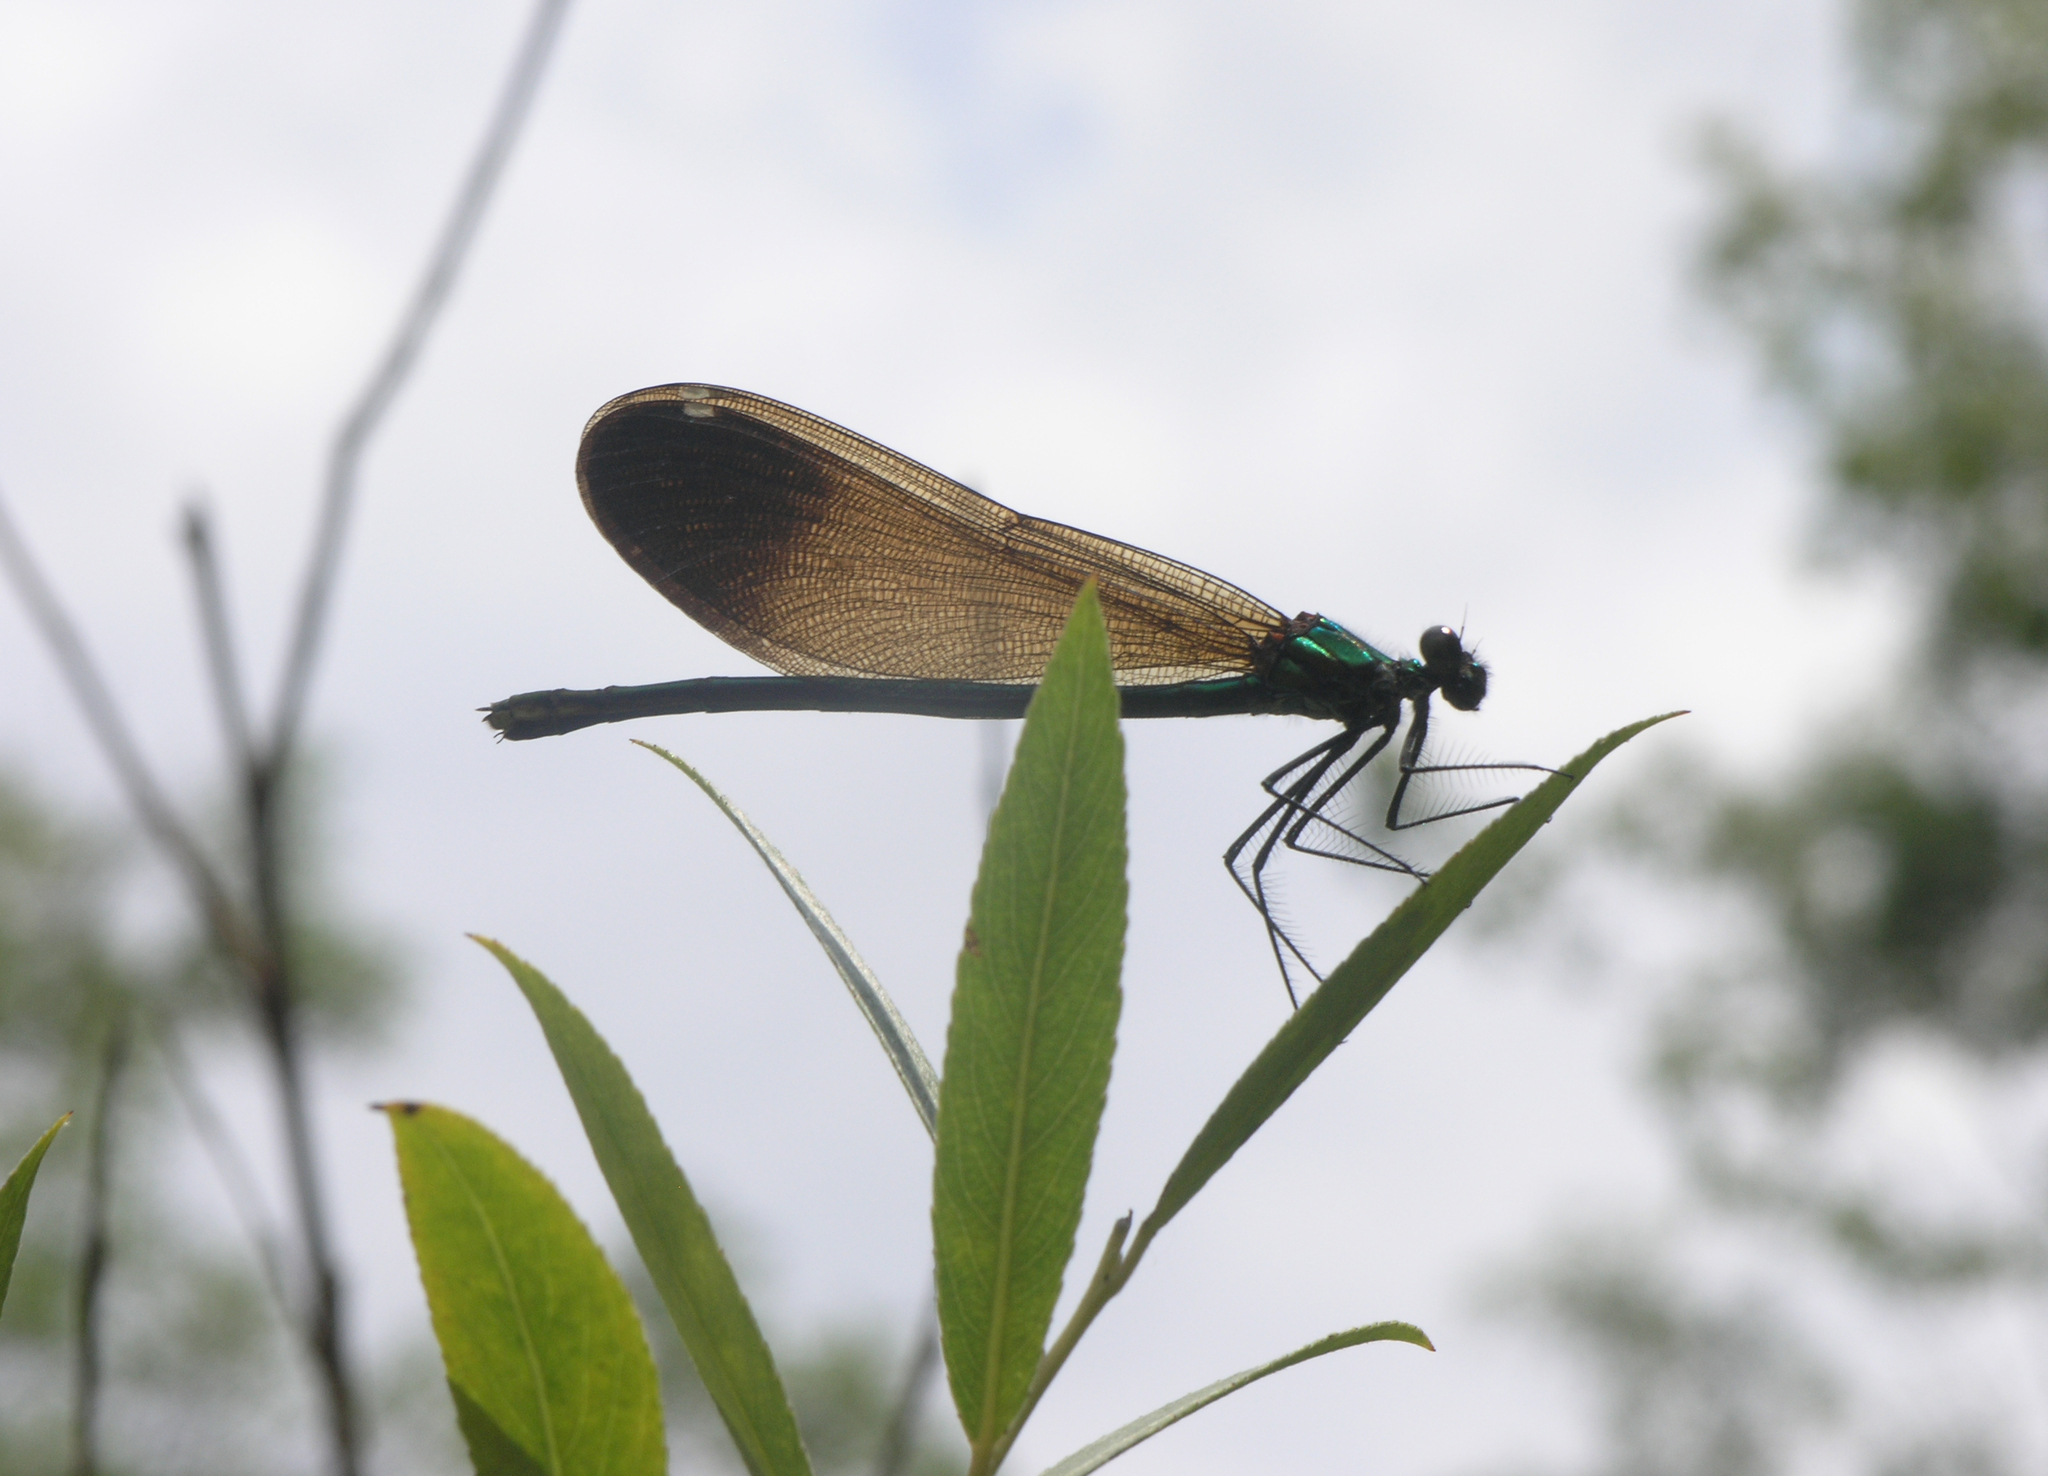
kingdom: Animalia
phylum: Arthropoda
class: Insecta
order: Odonata
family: Calopterygidae
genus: Calopteryx
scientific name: Calopteryx virgo
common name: Beautiful demoiselle
